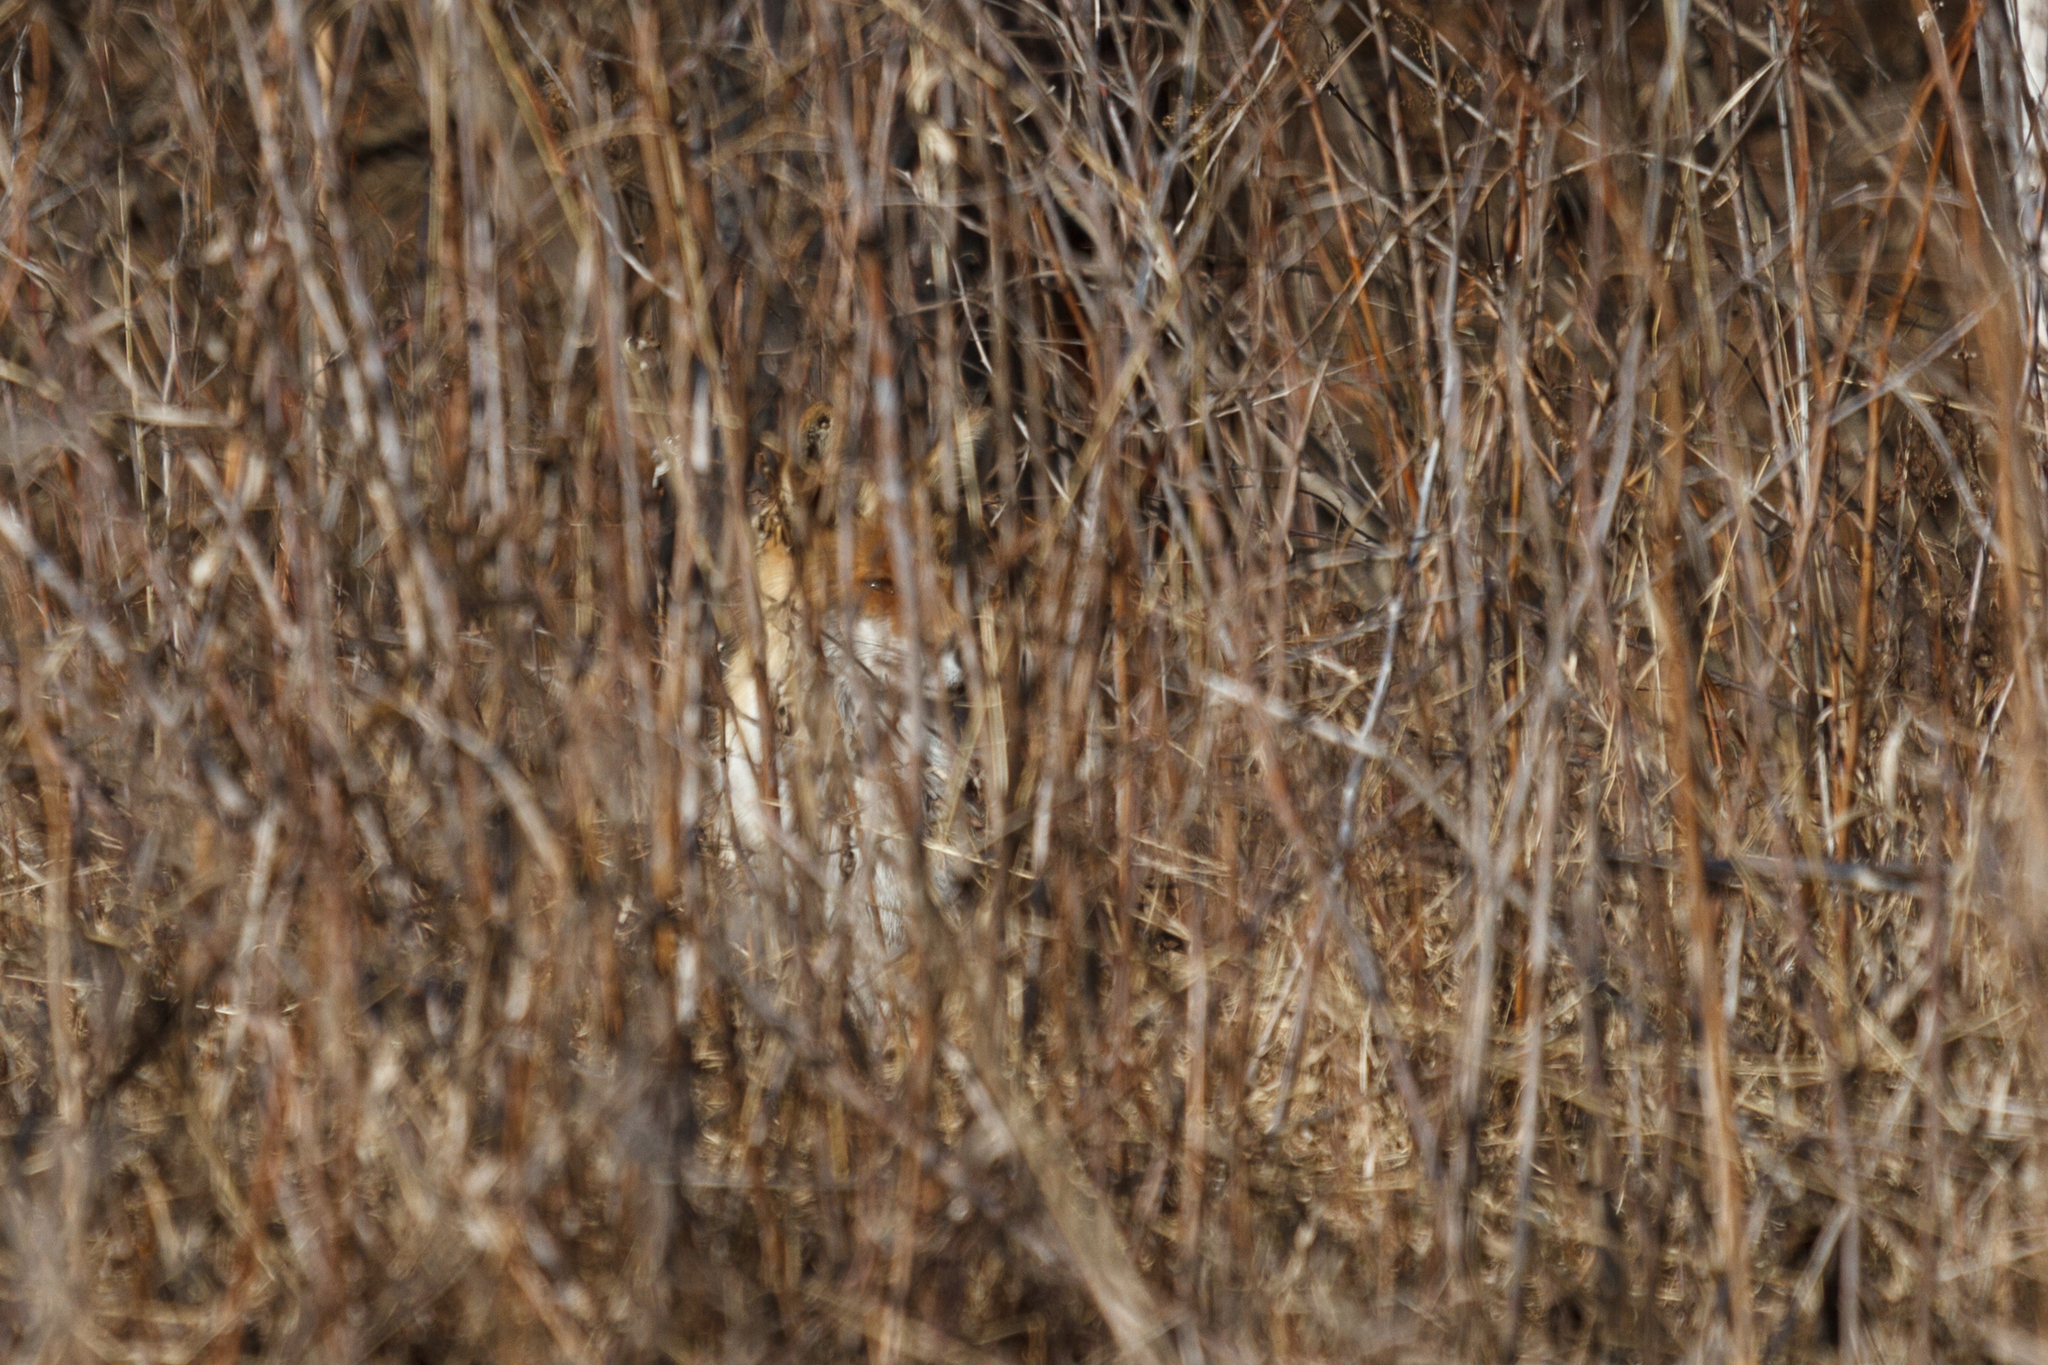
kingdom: Animalia
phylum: Chordata
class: Mammalia
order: Carnivora
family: Canidae
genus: Vulpes
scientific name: Vulpes vulpes
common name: Red fox
